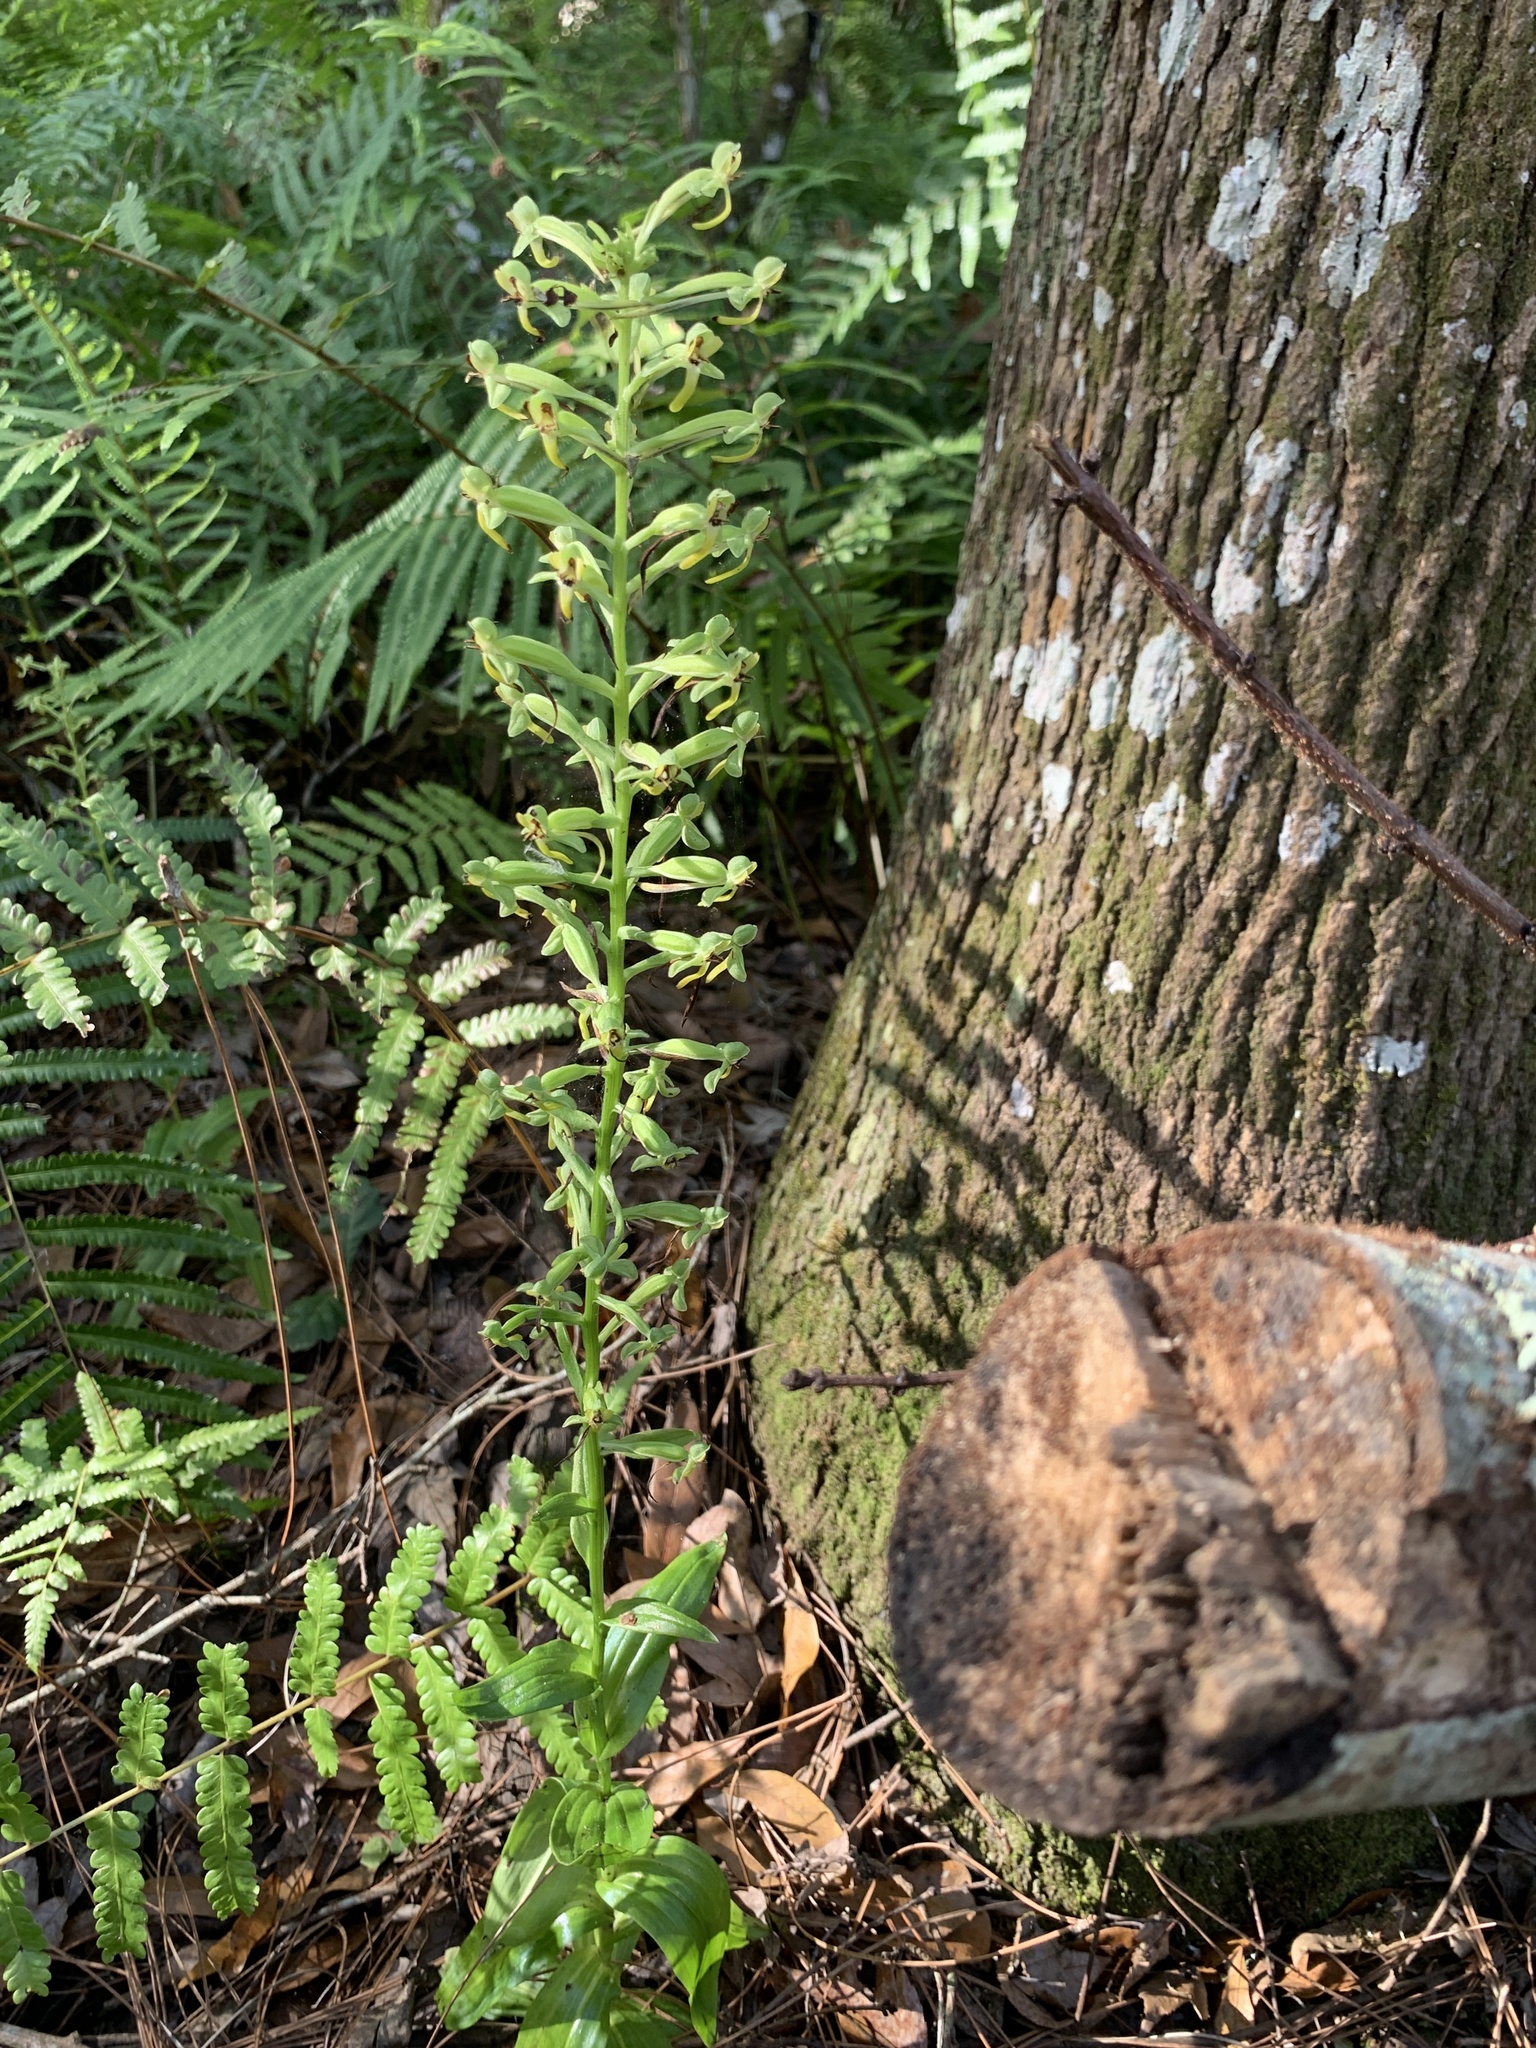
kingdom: Plantae
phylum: Tracheophyta
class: Liliopsida
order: Asparagales
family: Orchidaceae
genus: Habenaria
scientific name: Habenaria floribunda
